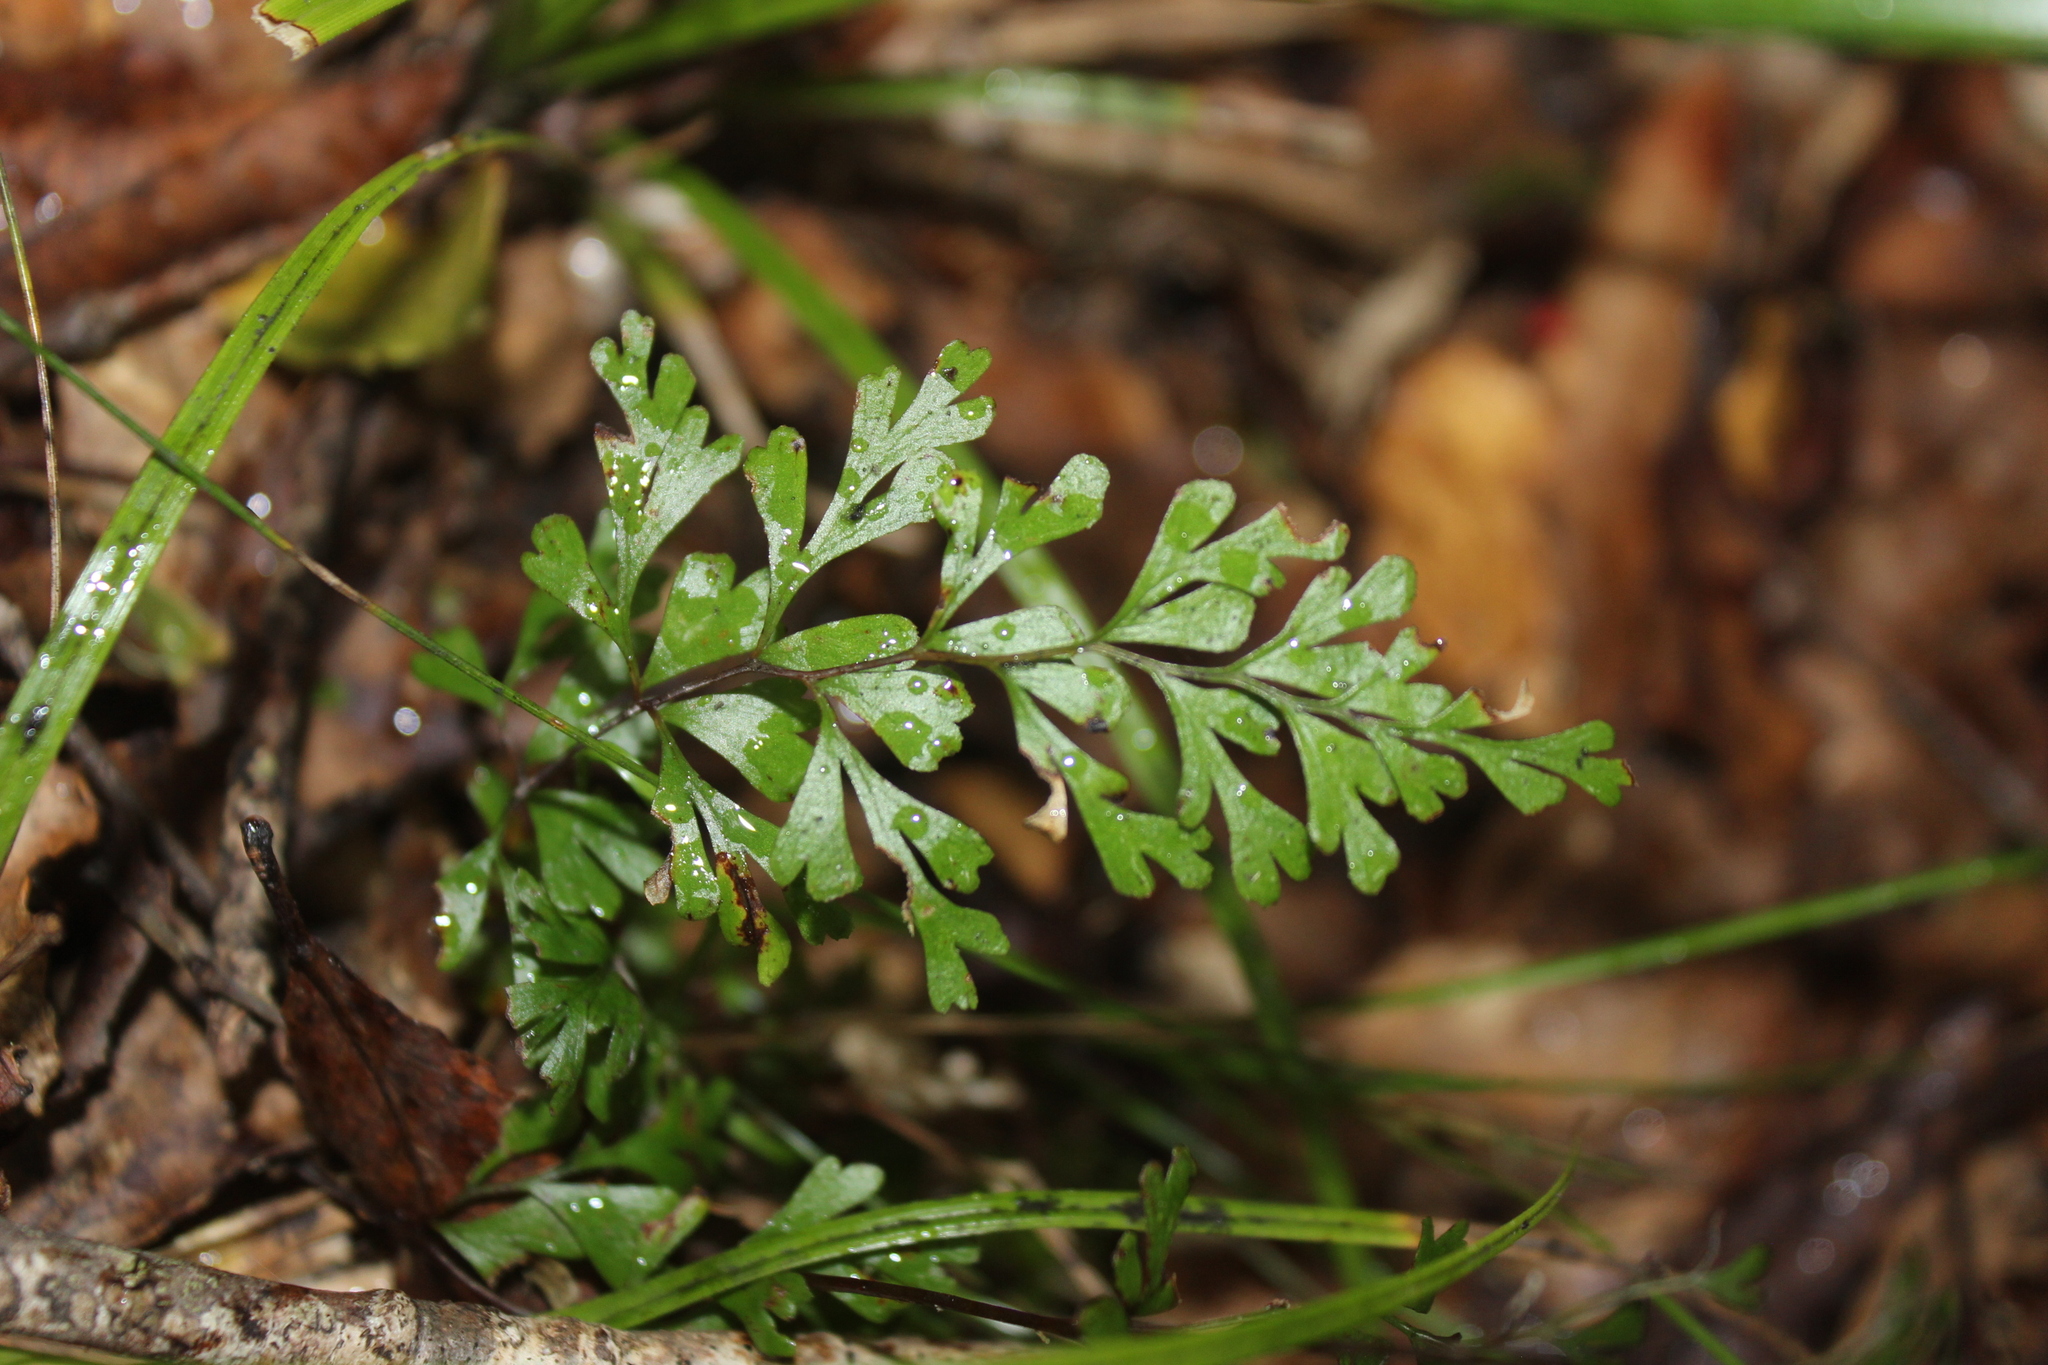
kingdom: Plantae
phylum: Tracheophyta
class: Polypodiopsida
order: Polypodiales
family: Lindsaeaceae
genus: Lindsaea
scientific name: Lindsaea trichomanoides
